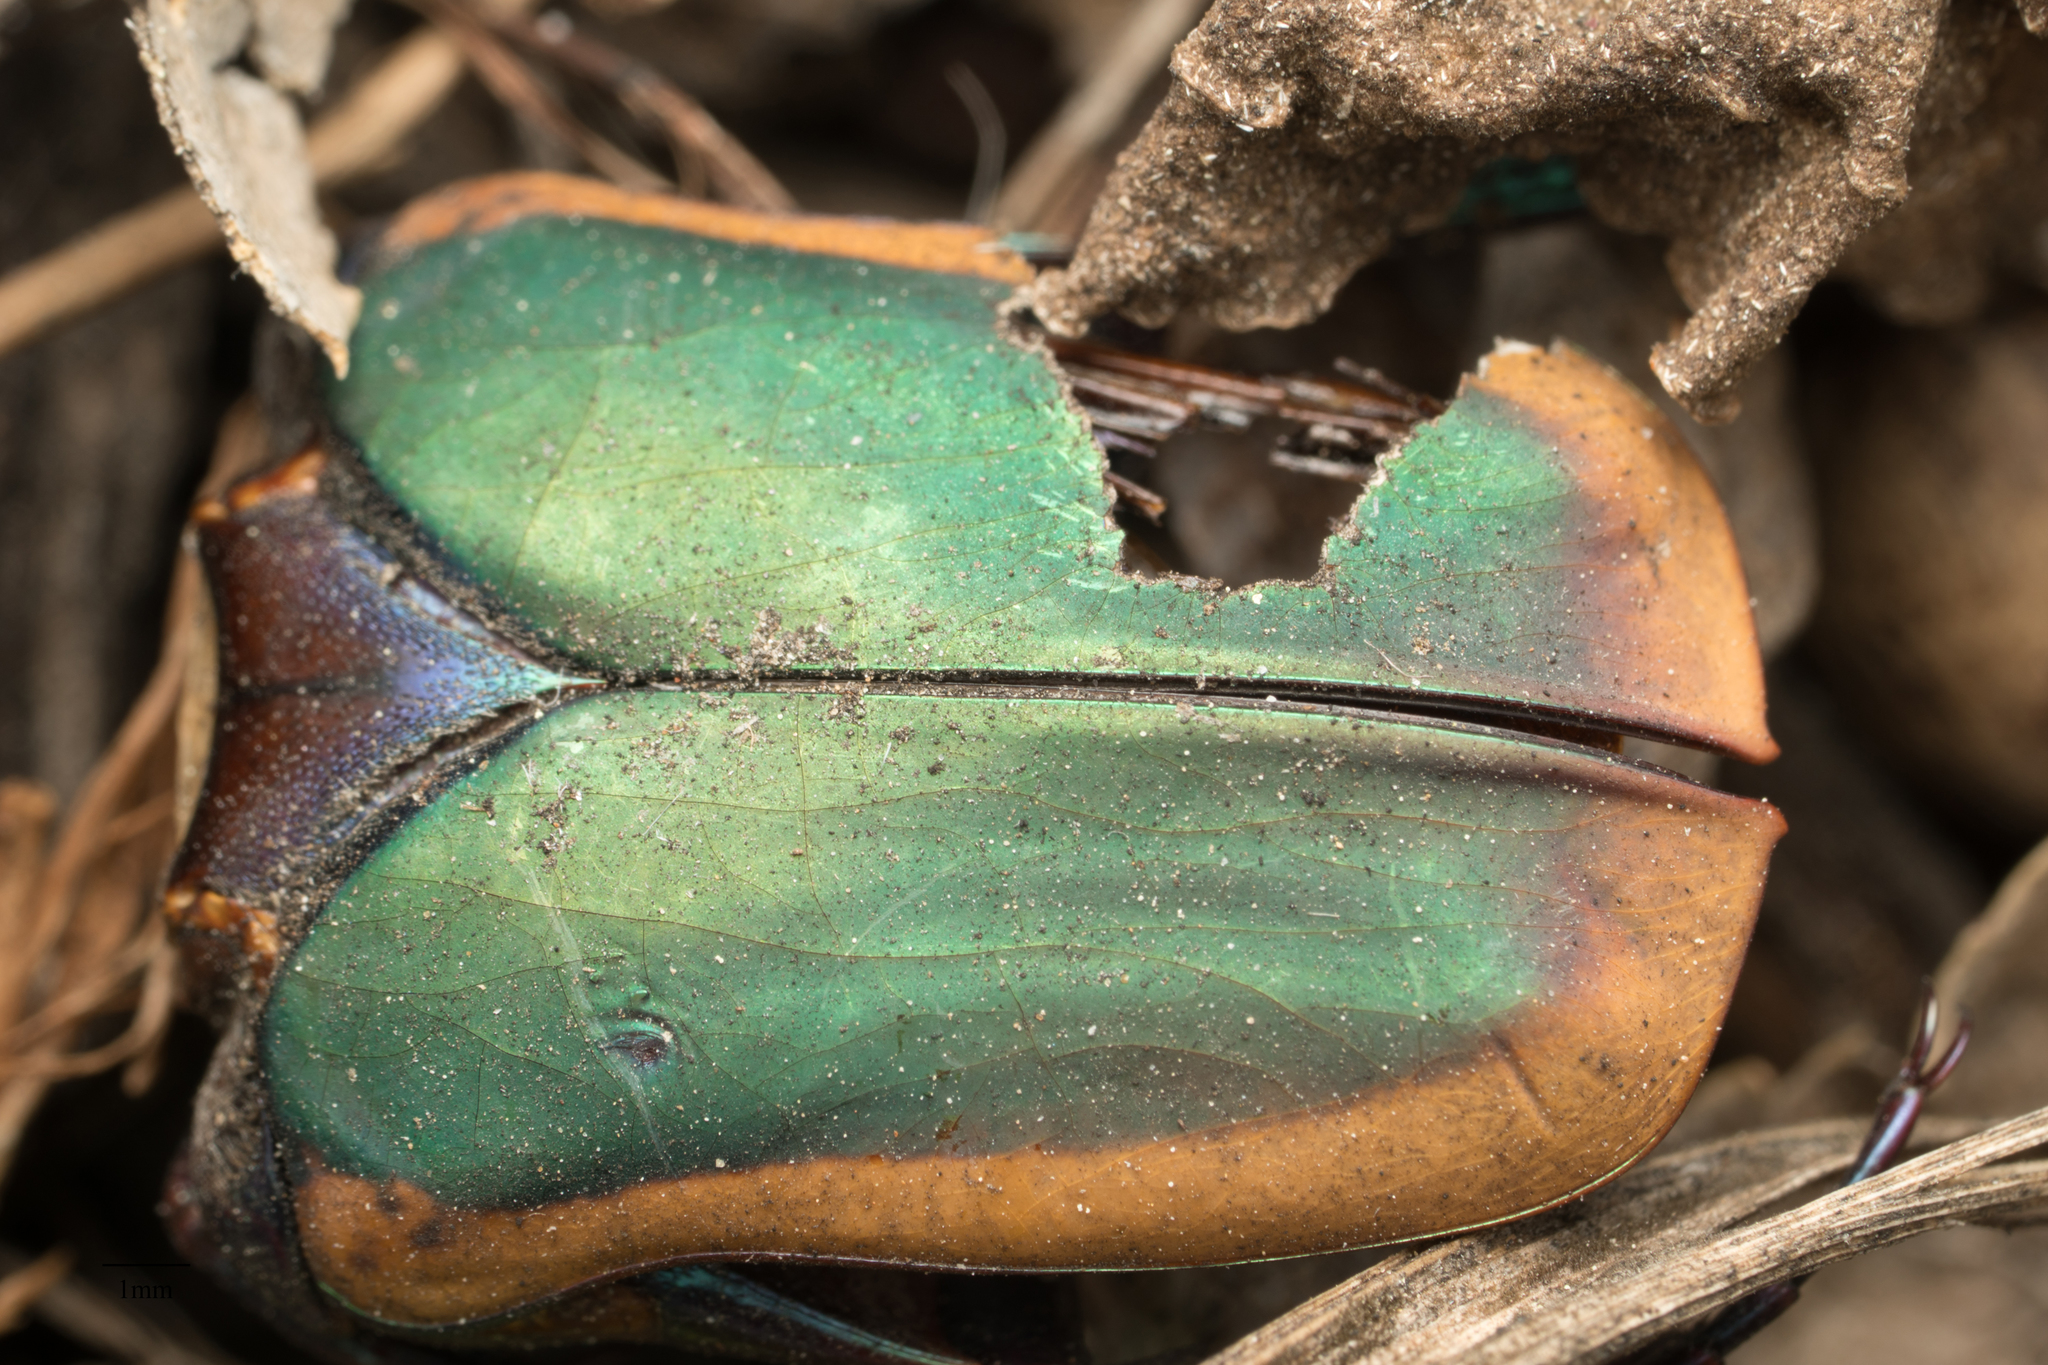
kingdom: Animalia
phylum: Arthropoda
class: Insecta
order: Coleoptera
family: Scarabaeidae
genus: Cotinis
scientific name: Cotinis mutabilis
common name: Figeater beetle
